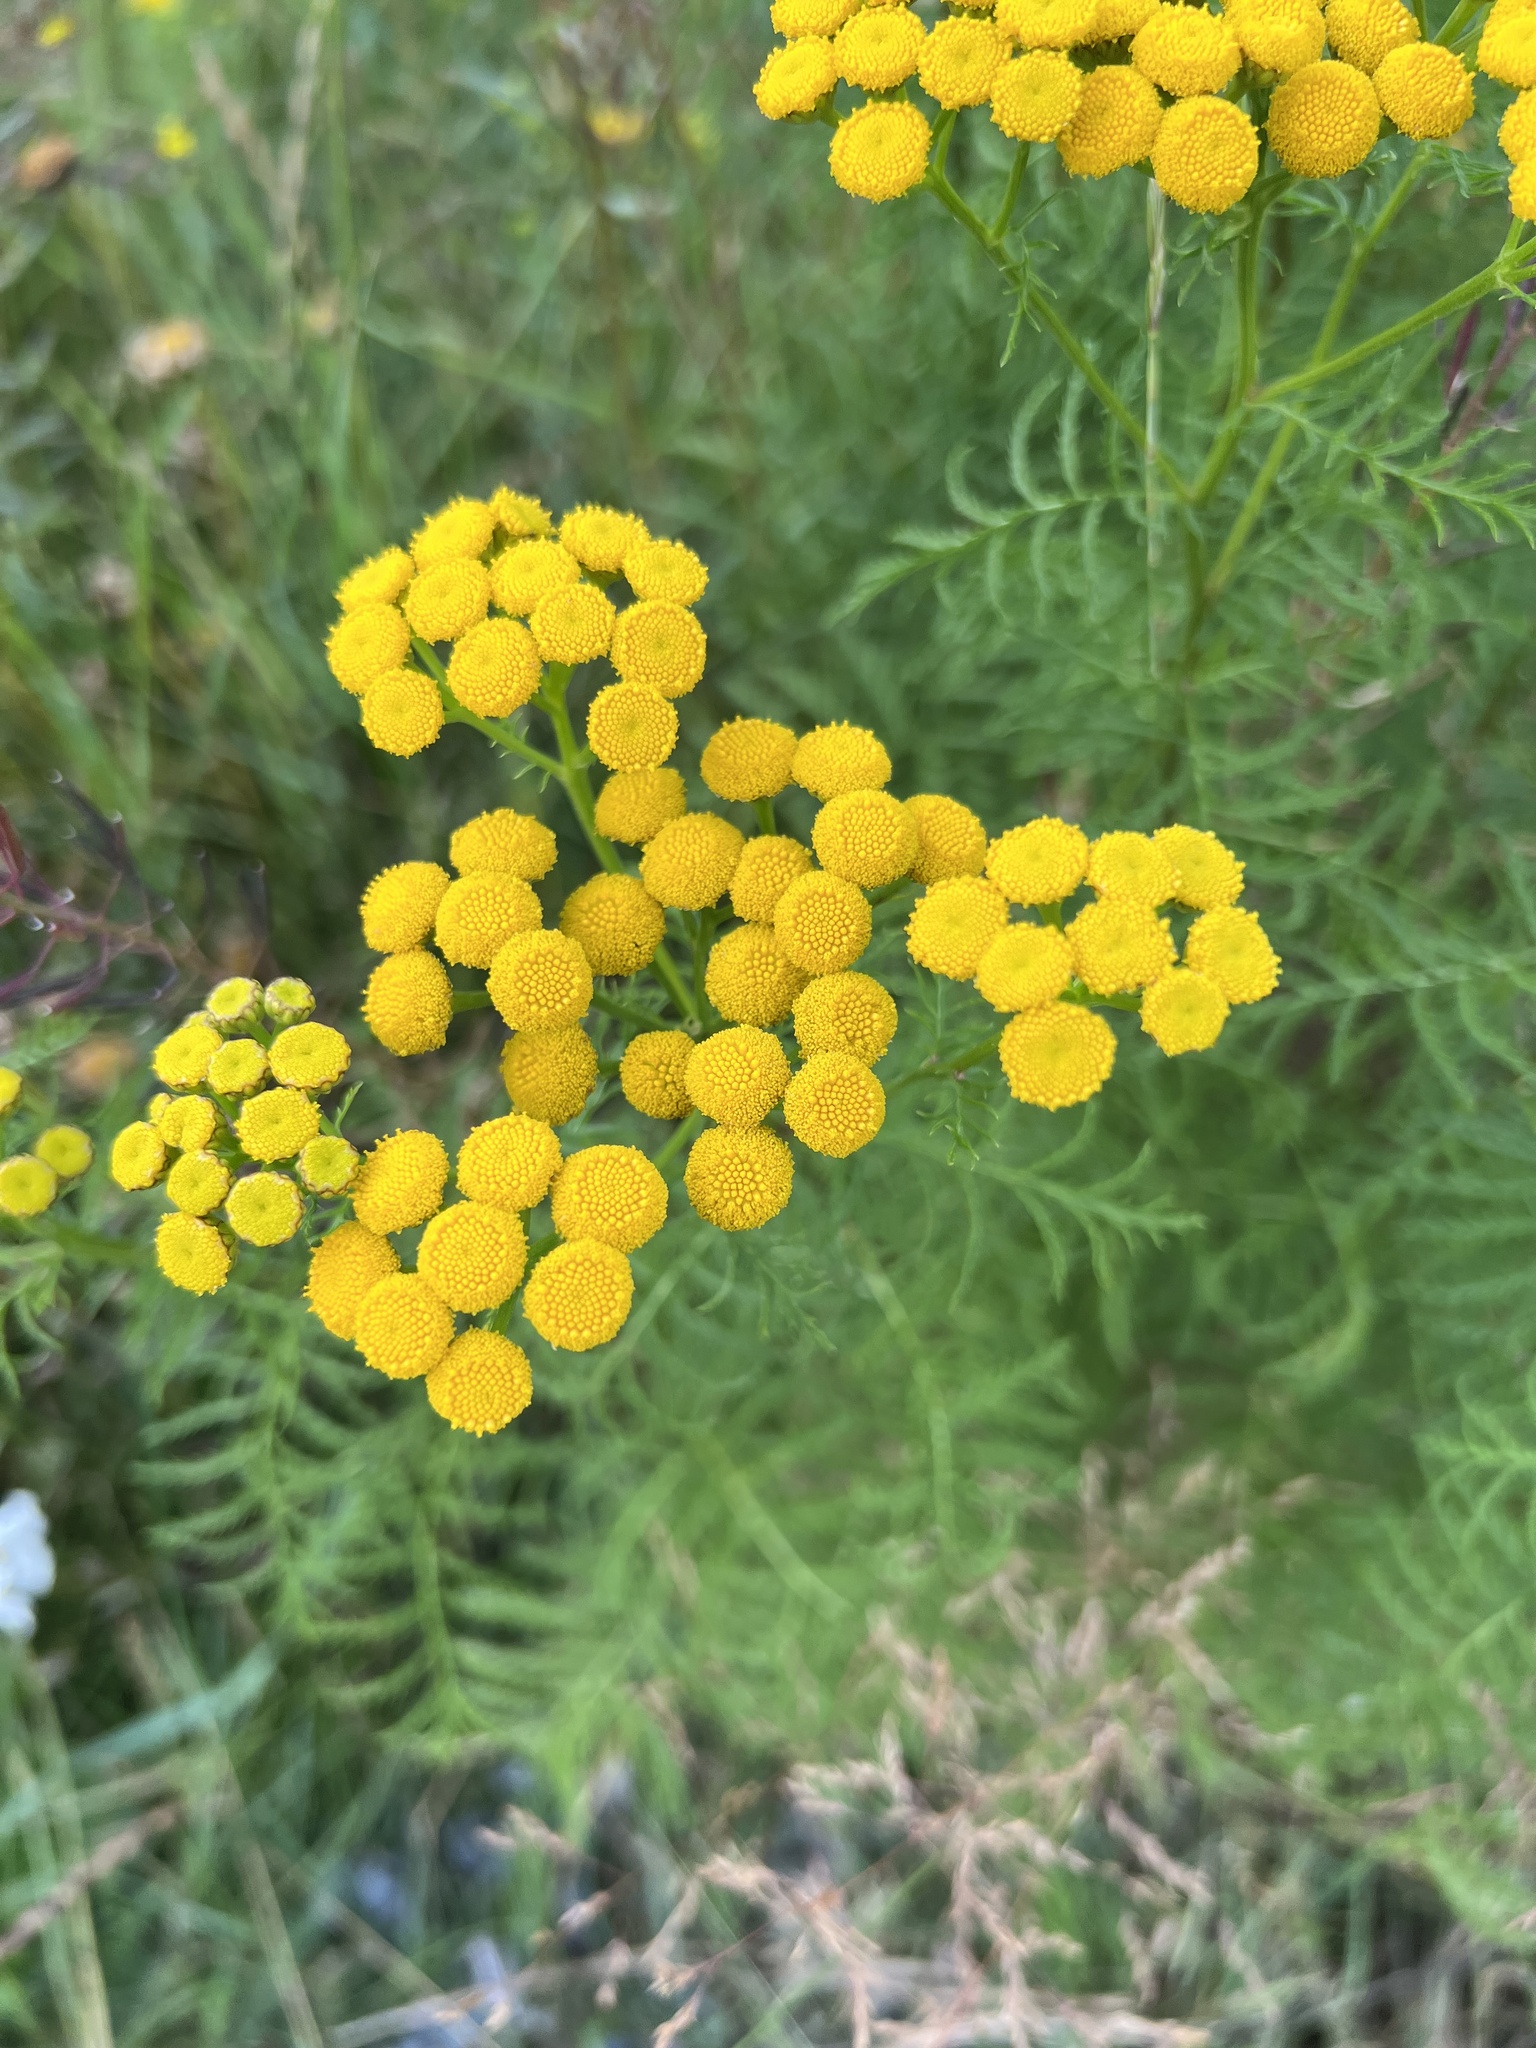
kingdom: Plantae
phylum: Tracheophyta
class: Magnoliopsida
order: Asterales
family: Asteraceae
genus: Tanacetum
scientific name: Tanacetum vulgare
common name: Common tansy
